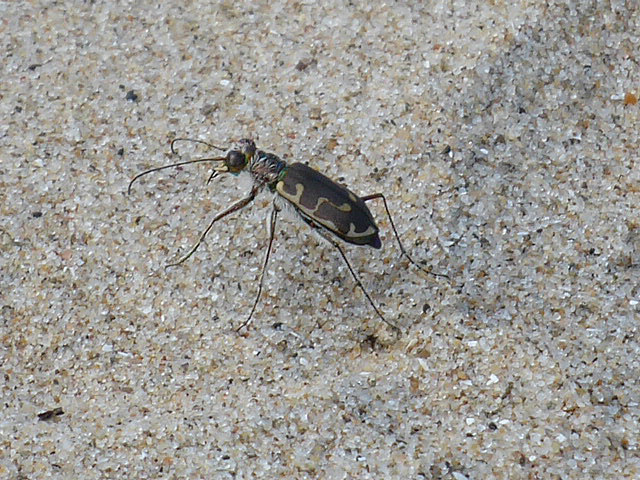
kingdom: Animalia
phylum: Arthropoda
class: Insecta
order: Coleoptera
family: Carabidae
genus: Cicindela
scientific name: Cicindela hirticollis
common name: Hairy-necked tiger beetle
